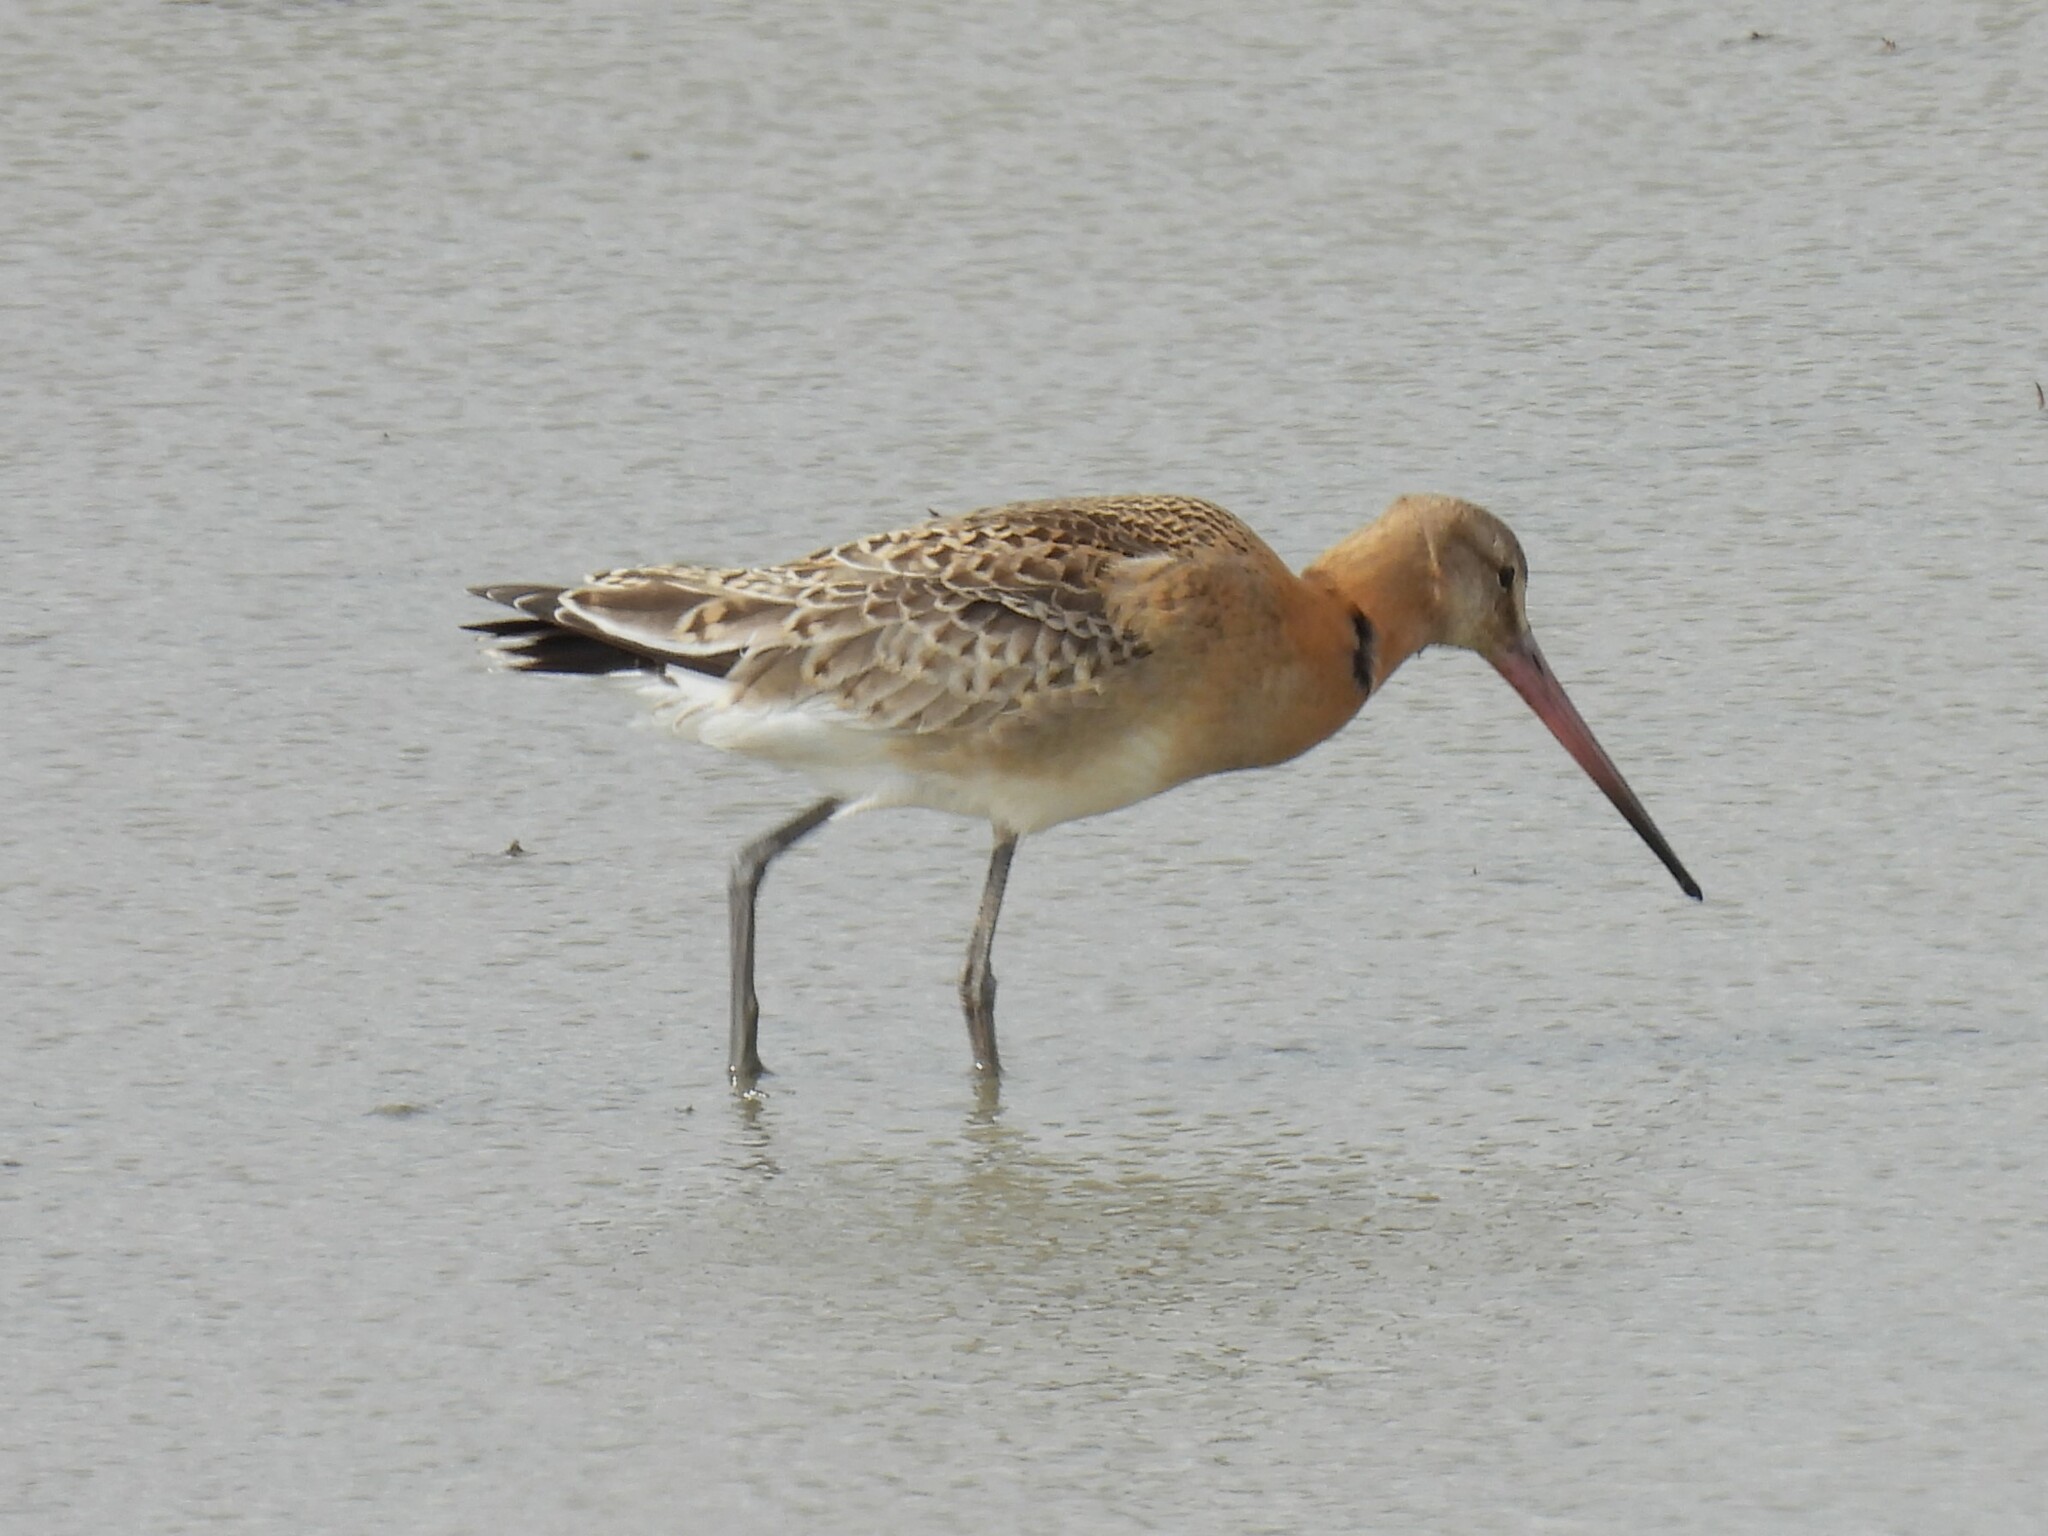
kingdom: Animalia
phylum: Chordata
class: Aves
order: Charadriiformes
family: Scolopacidae
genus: Limosa
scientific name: Limosa limosa
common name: Black-tailed godwit
